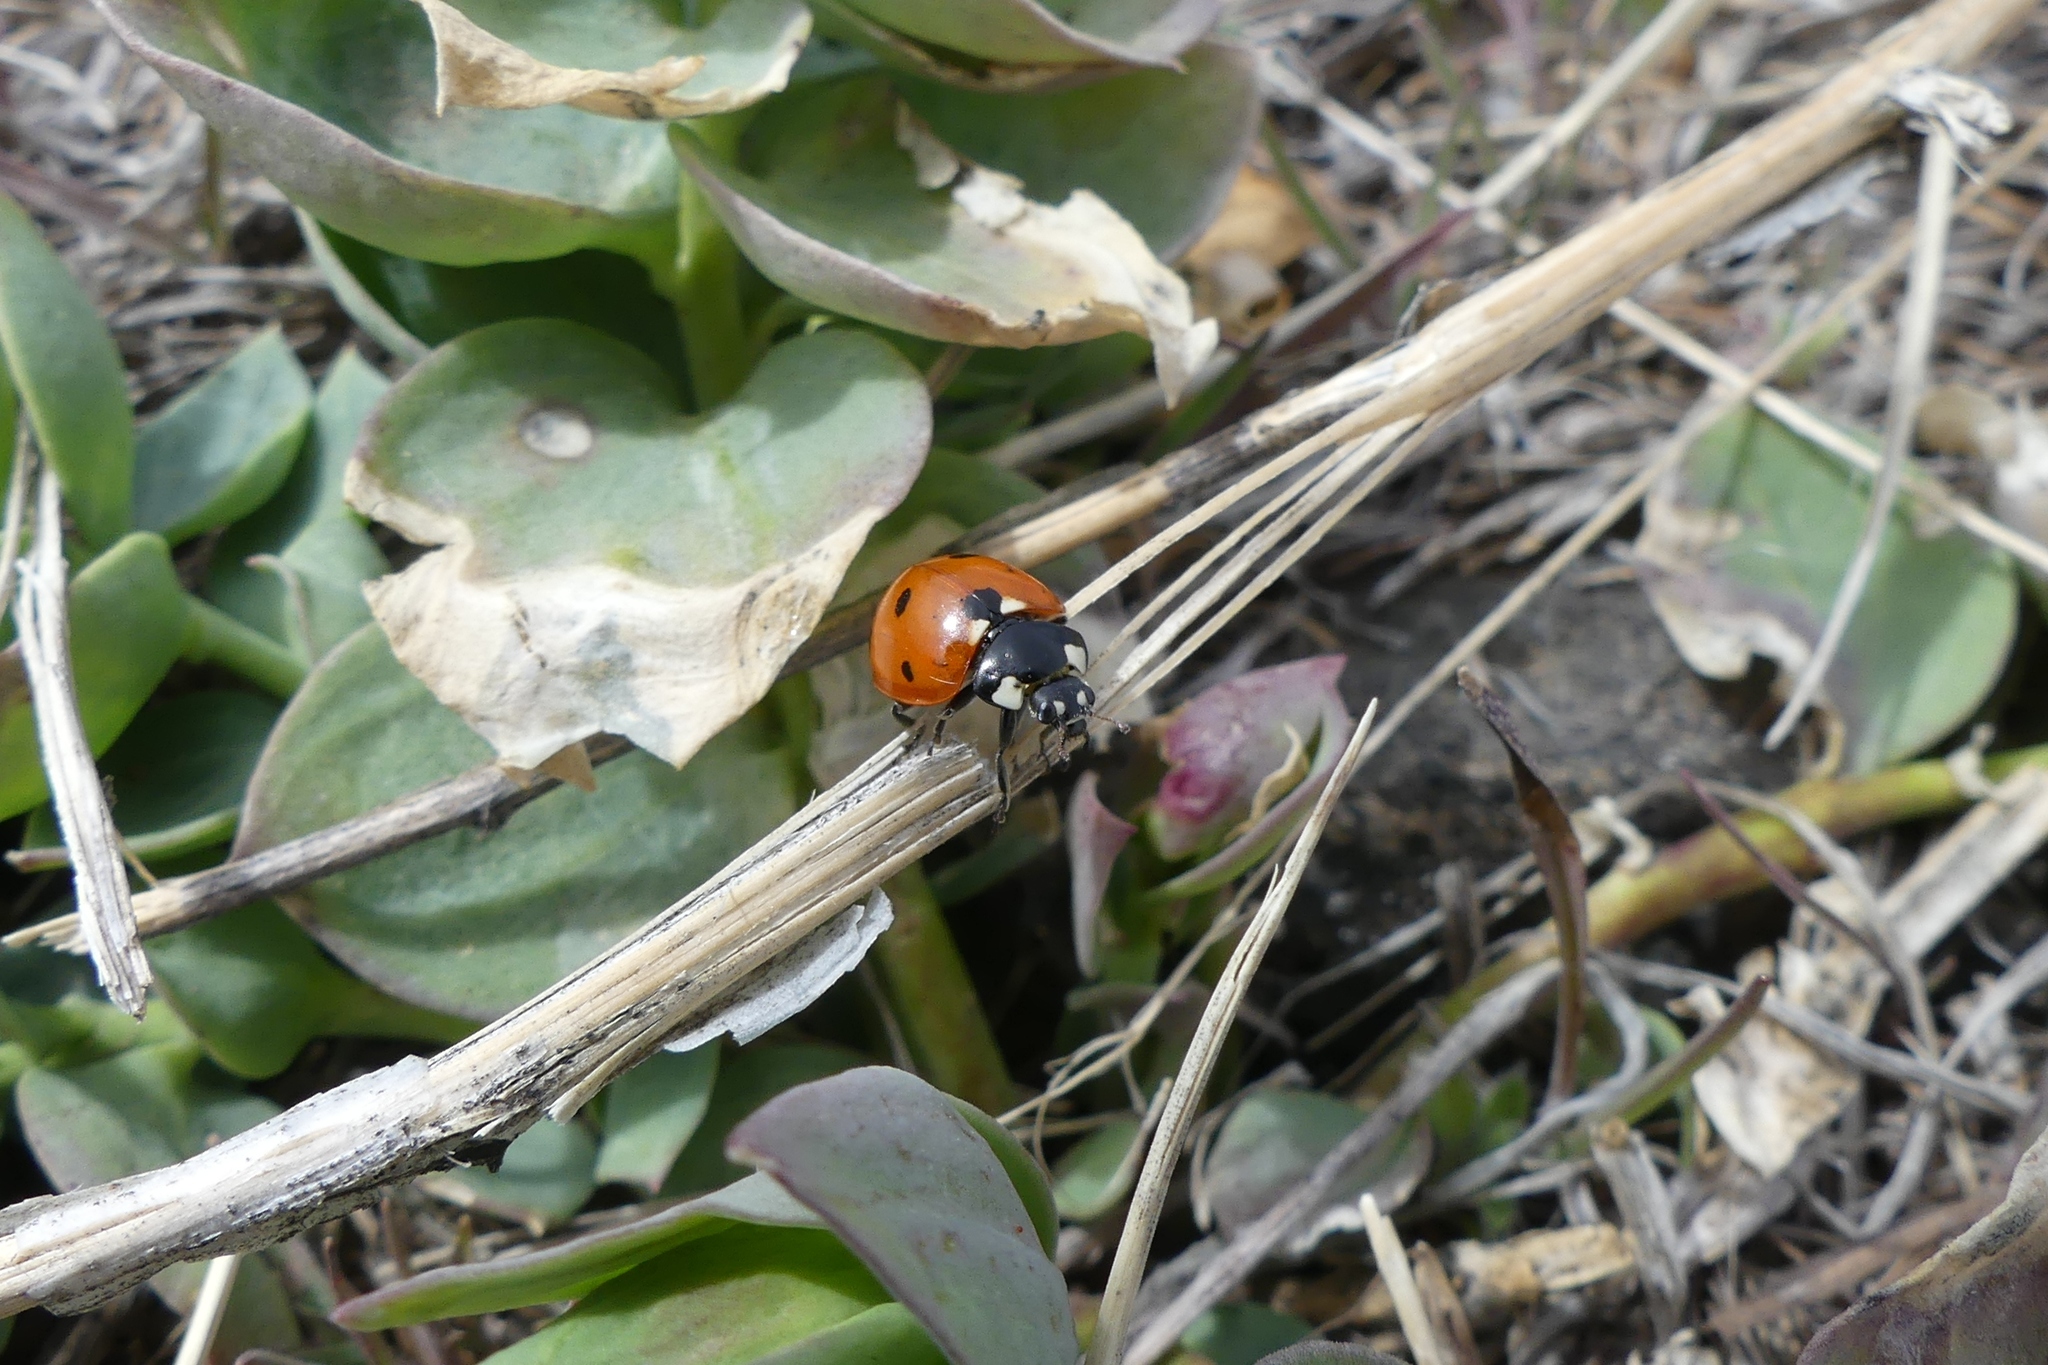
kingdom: Animalia
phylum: Arthropoda
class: Insecta
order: Coleoptera
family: Coccinellidae
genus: Coccinella
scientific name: Coccinella septempunctata
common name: Sevenspotted lady beetle
